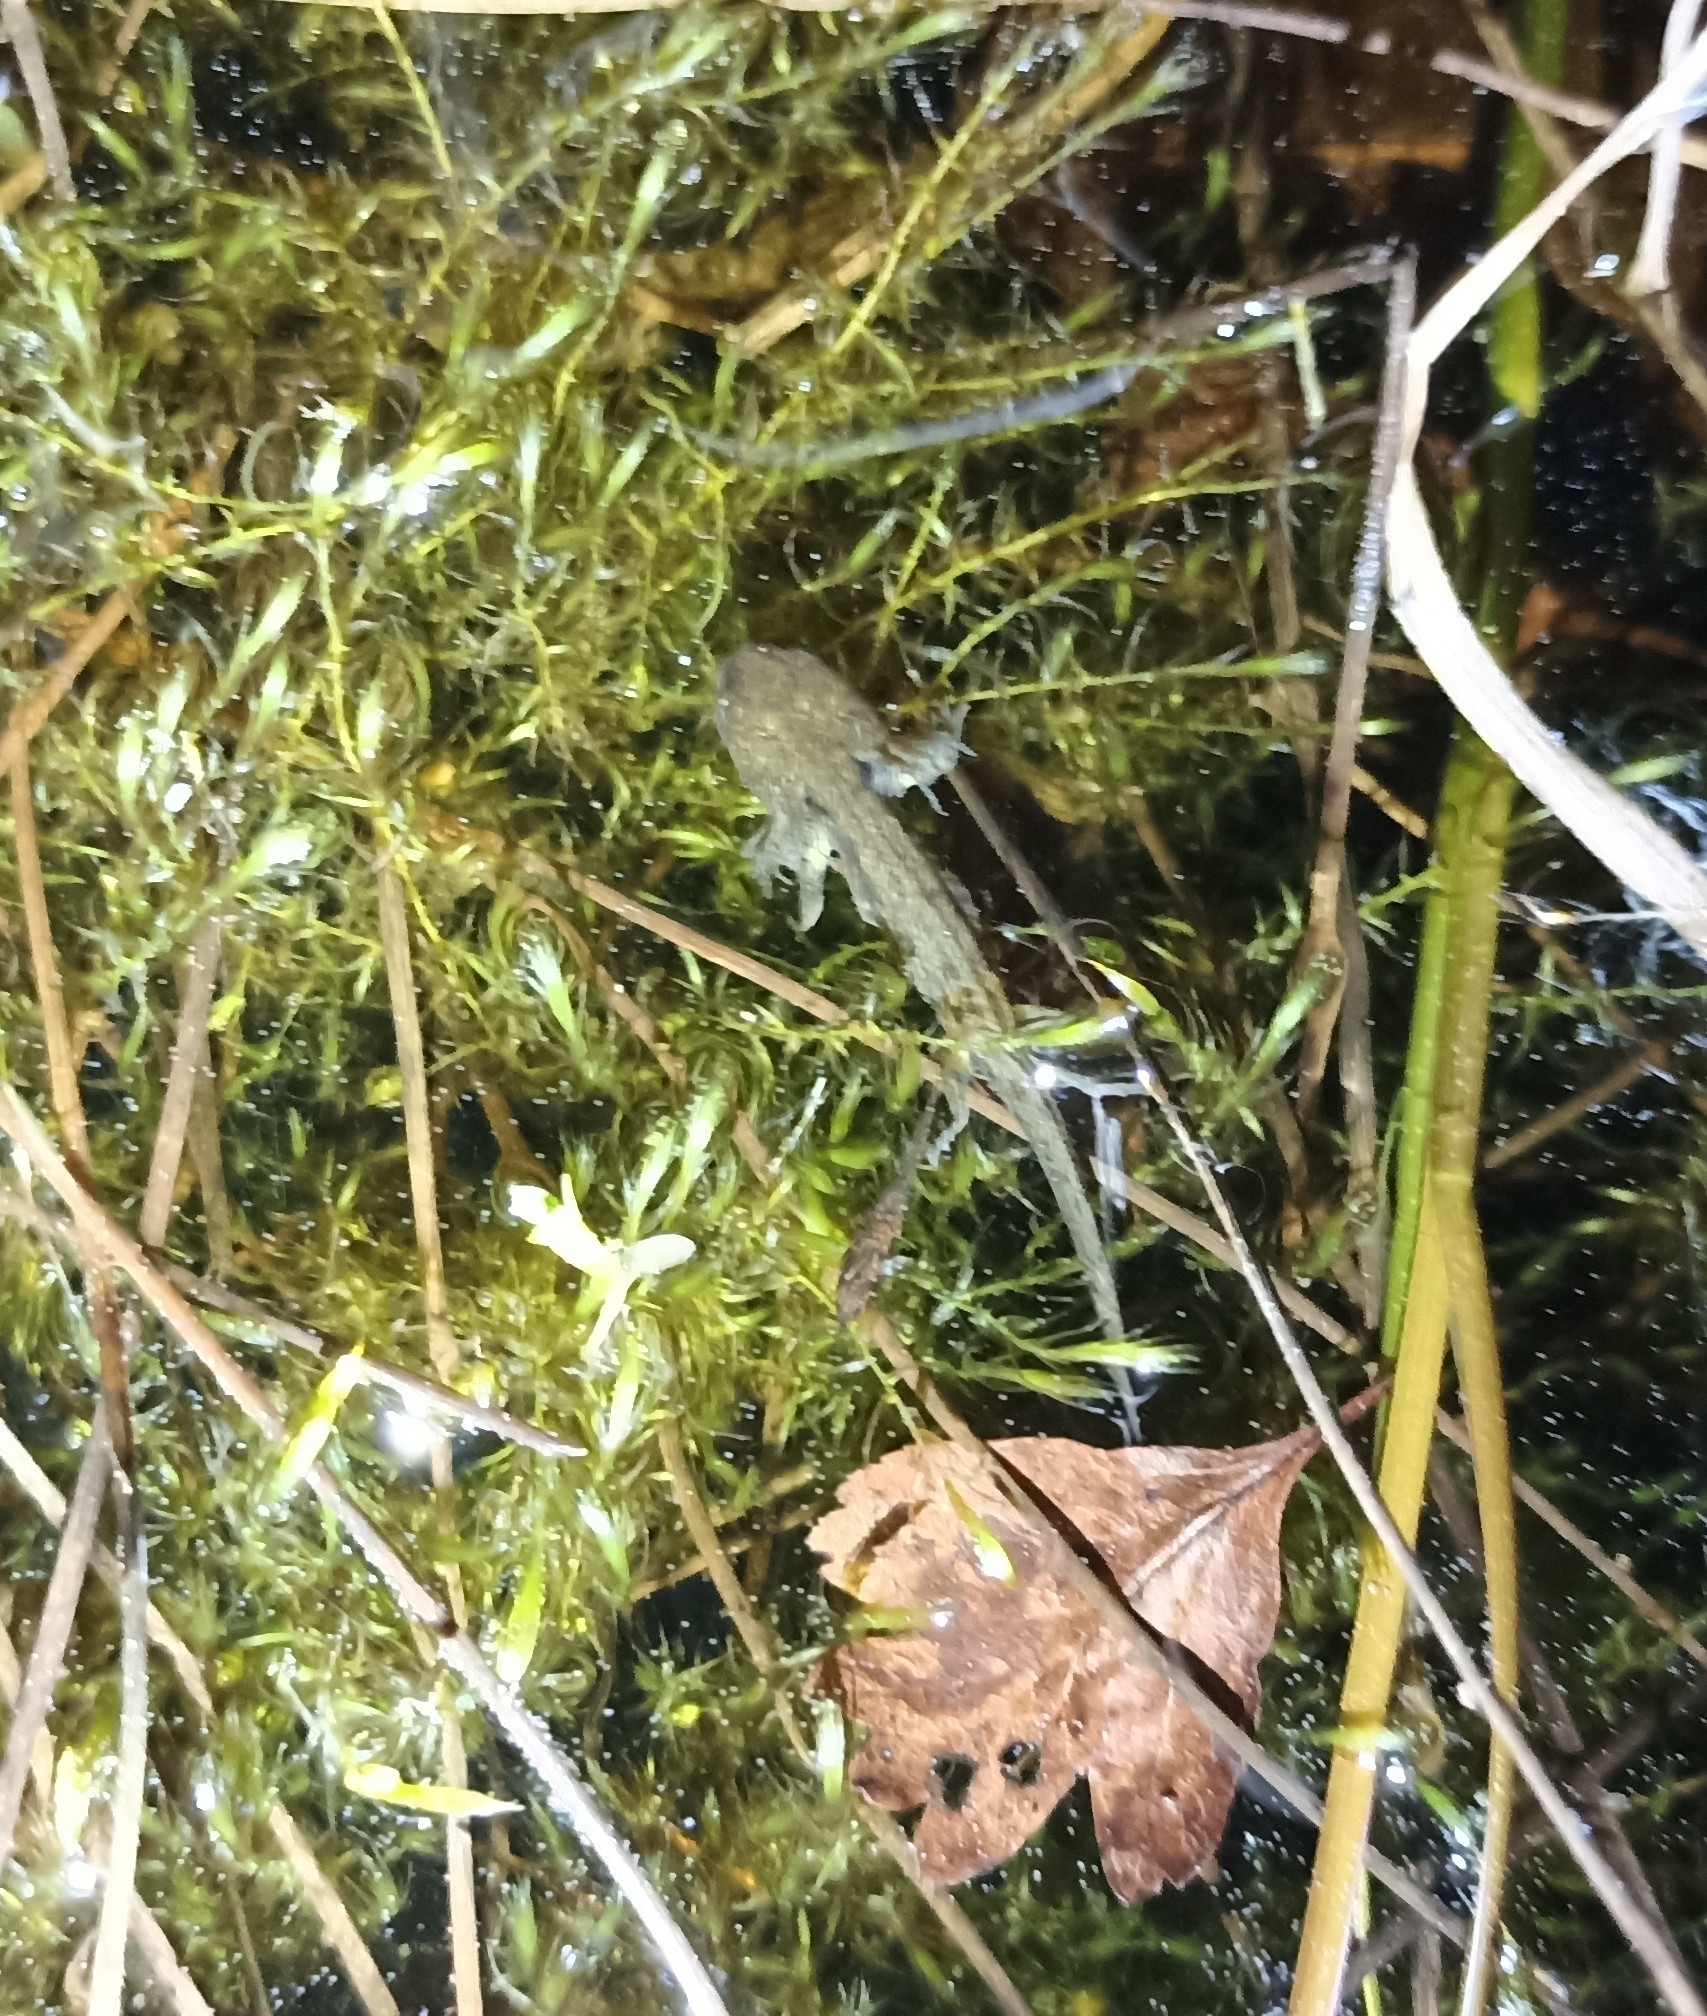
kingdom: Animalia
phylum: Chordata
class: Amphibia
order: Caudata
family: Salamandridae
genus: Salamandra
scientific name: Salamandra salamandra
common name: Fire salamander
